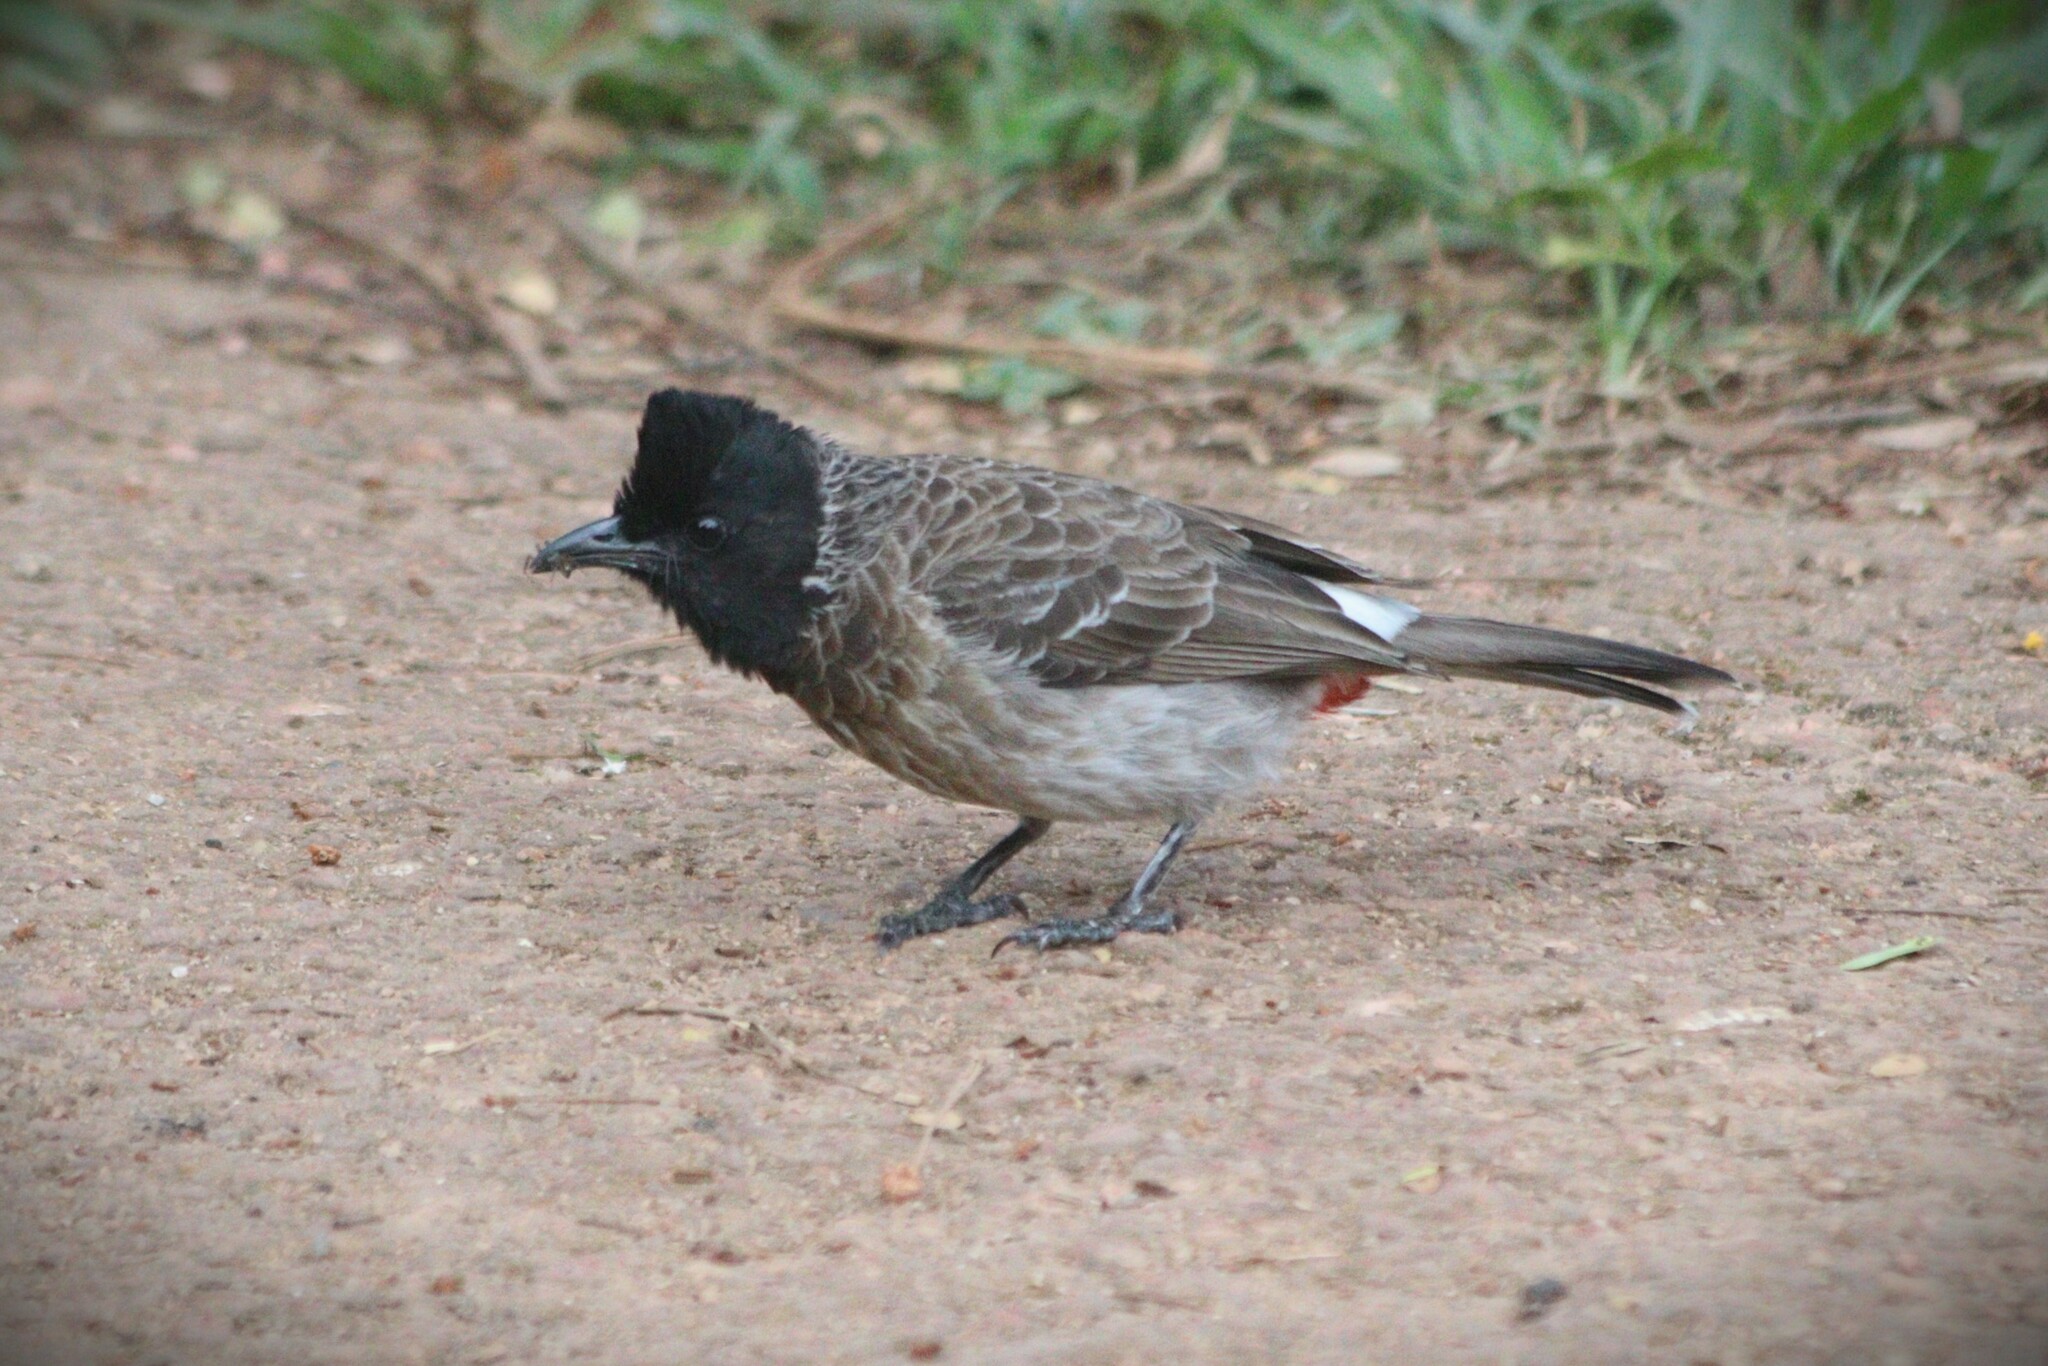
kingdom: Animalia
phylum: Chordata
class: Aves
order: Passeriformes
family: Pycnonotidae
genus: Pycnonotus
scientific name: Pycnonotus cafer
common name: Red-vented bulbul
